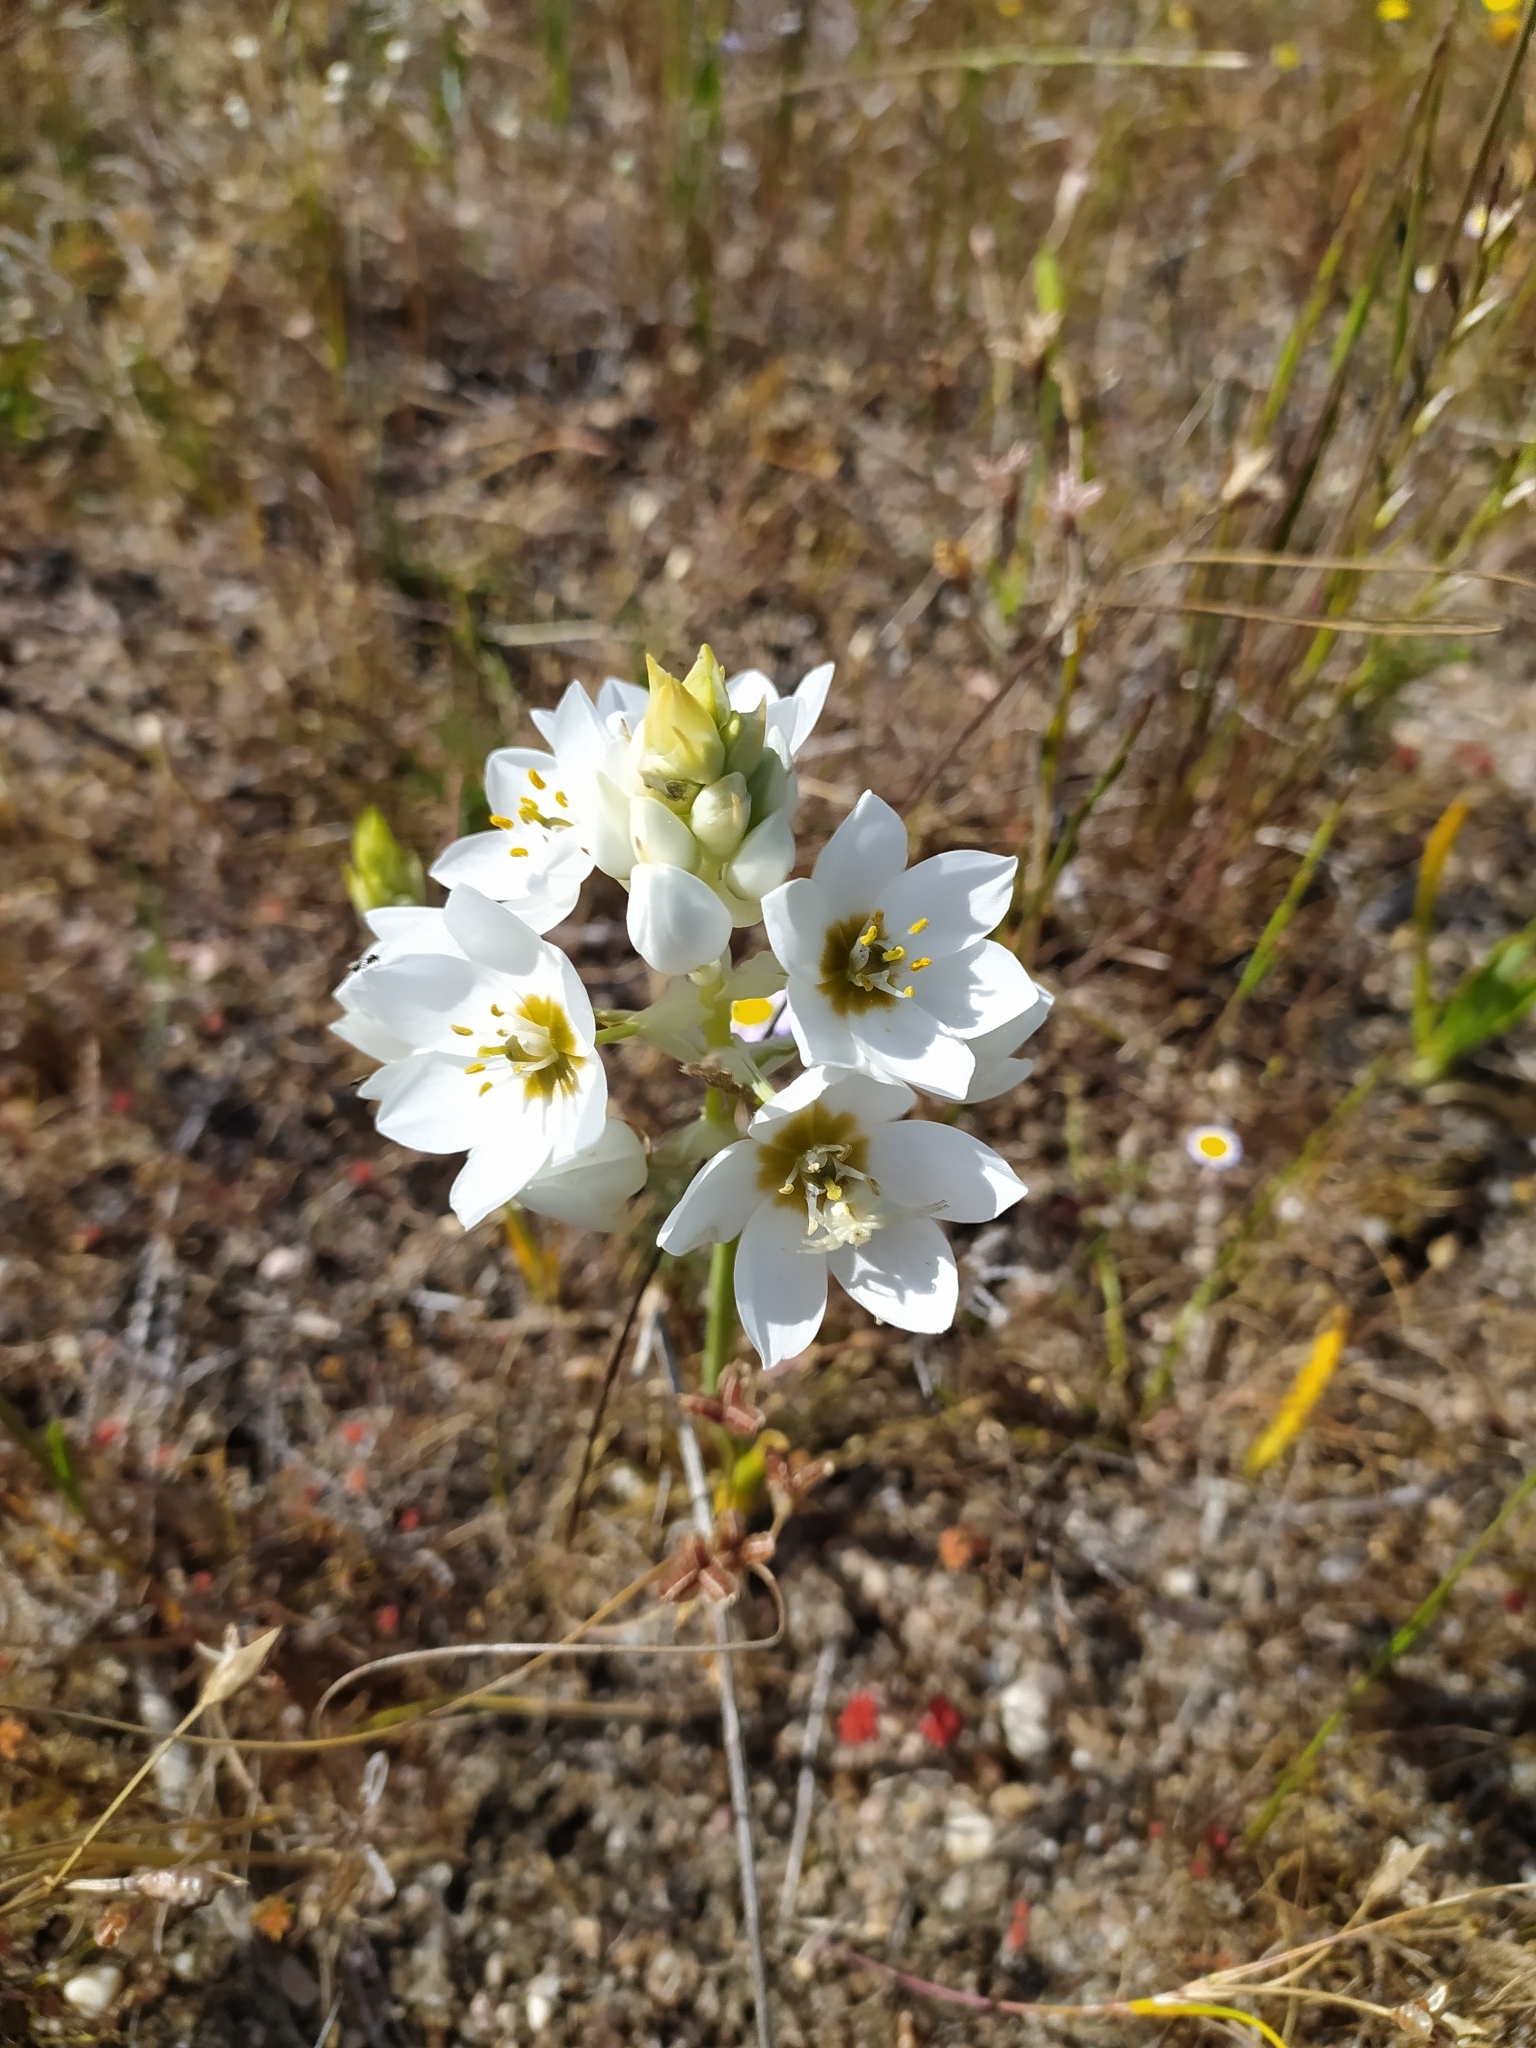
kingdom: Plantae
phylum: Tracheophyta
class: Liliopsida
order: Asparagales
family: Asparagaceae
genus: Ornithogalum
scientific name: Ornithogalum thyrsoides
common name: Chincherinchee
